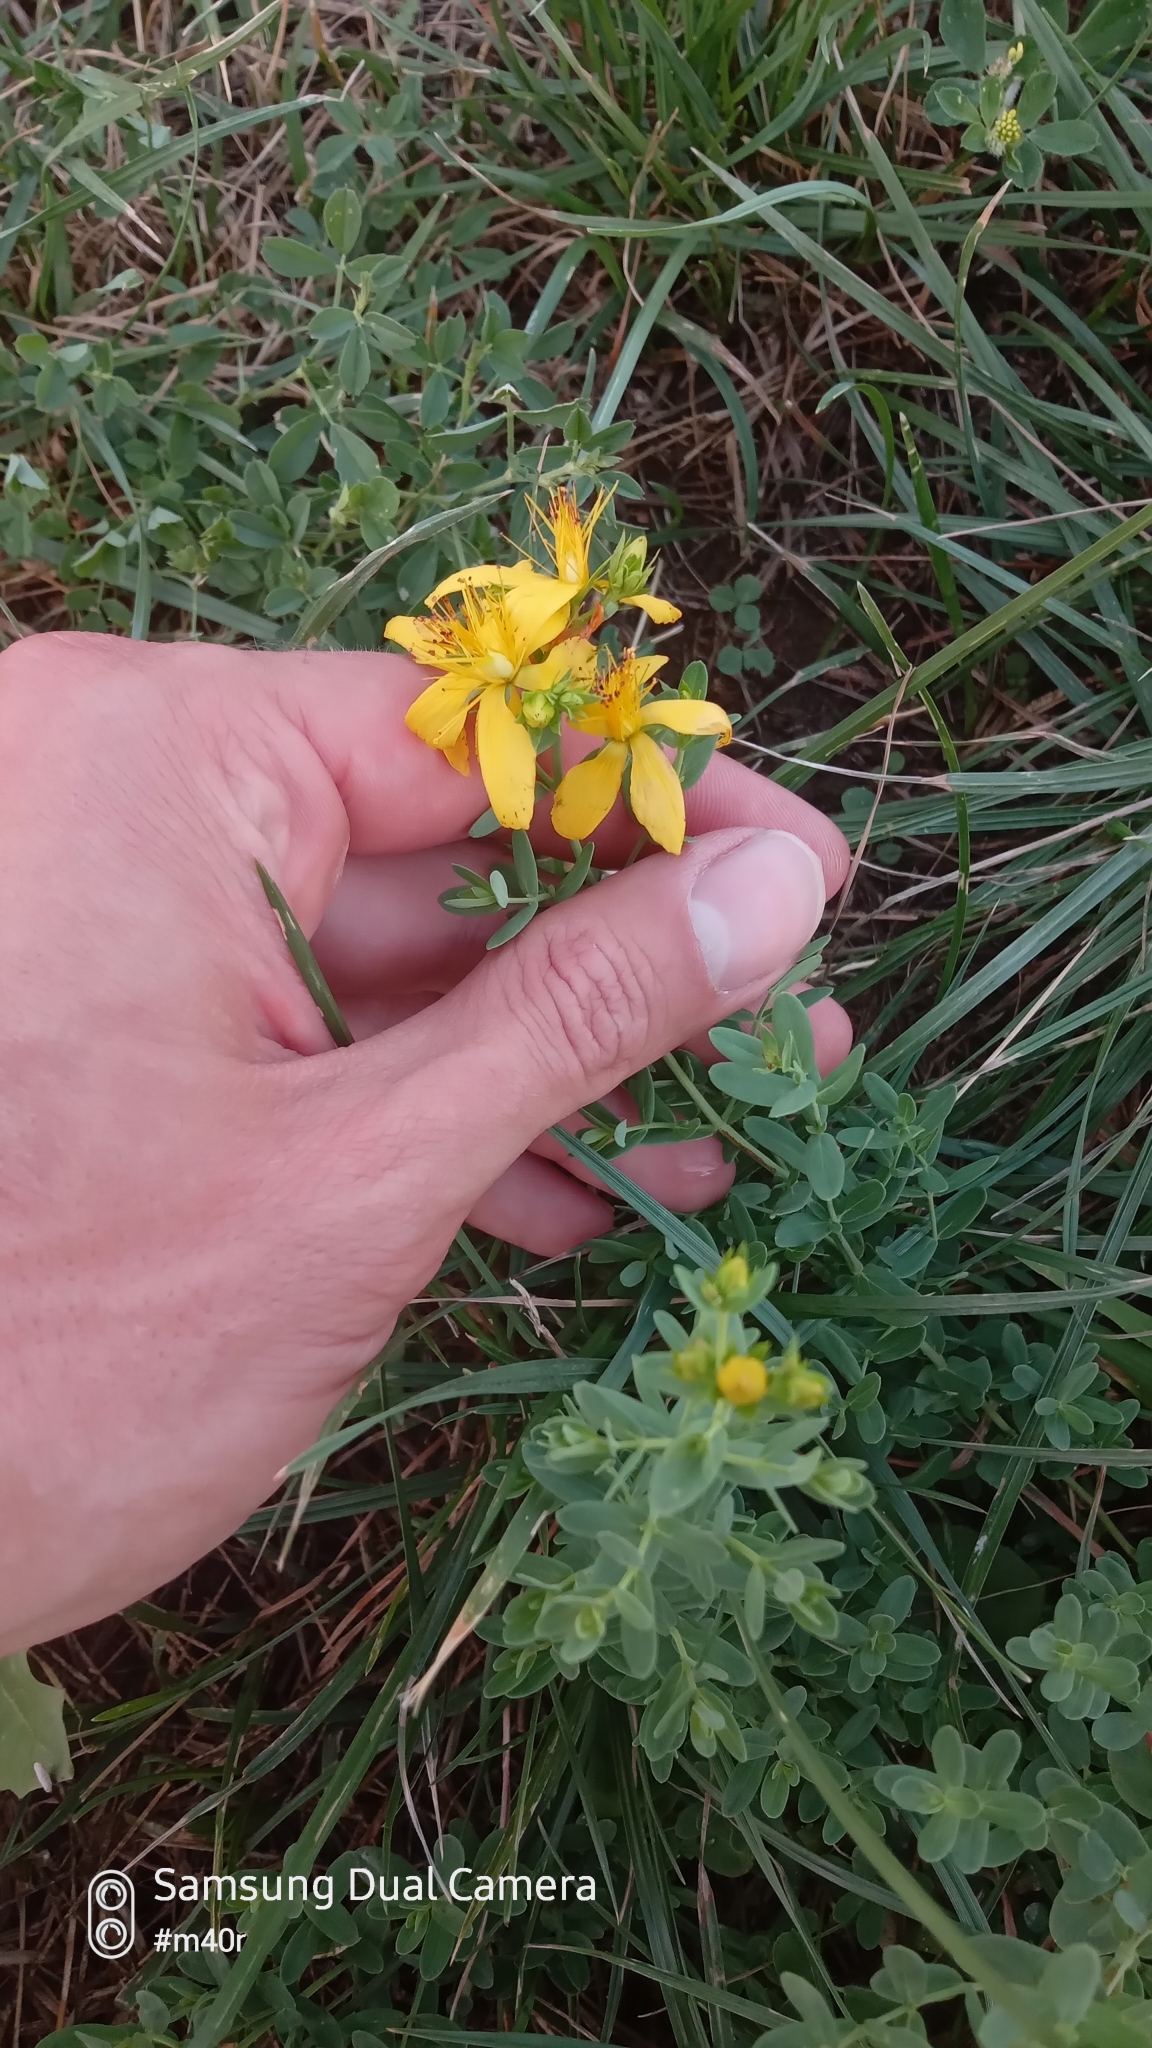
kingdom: Plantae
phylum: Tracheophyta
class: Magnoliopsida
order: Malpighiales
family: Hypericaceae
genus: Hypericum
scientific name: Hypericum perforatum
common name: Common st. johnswort
